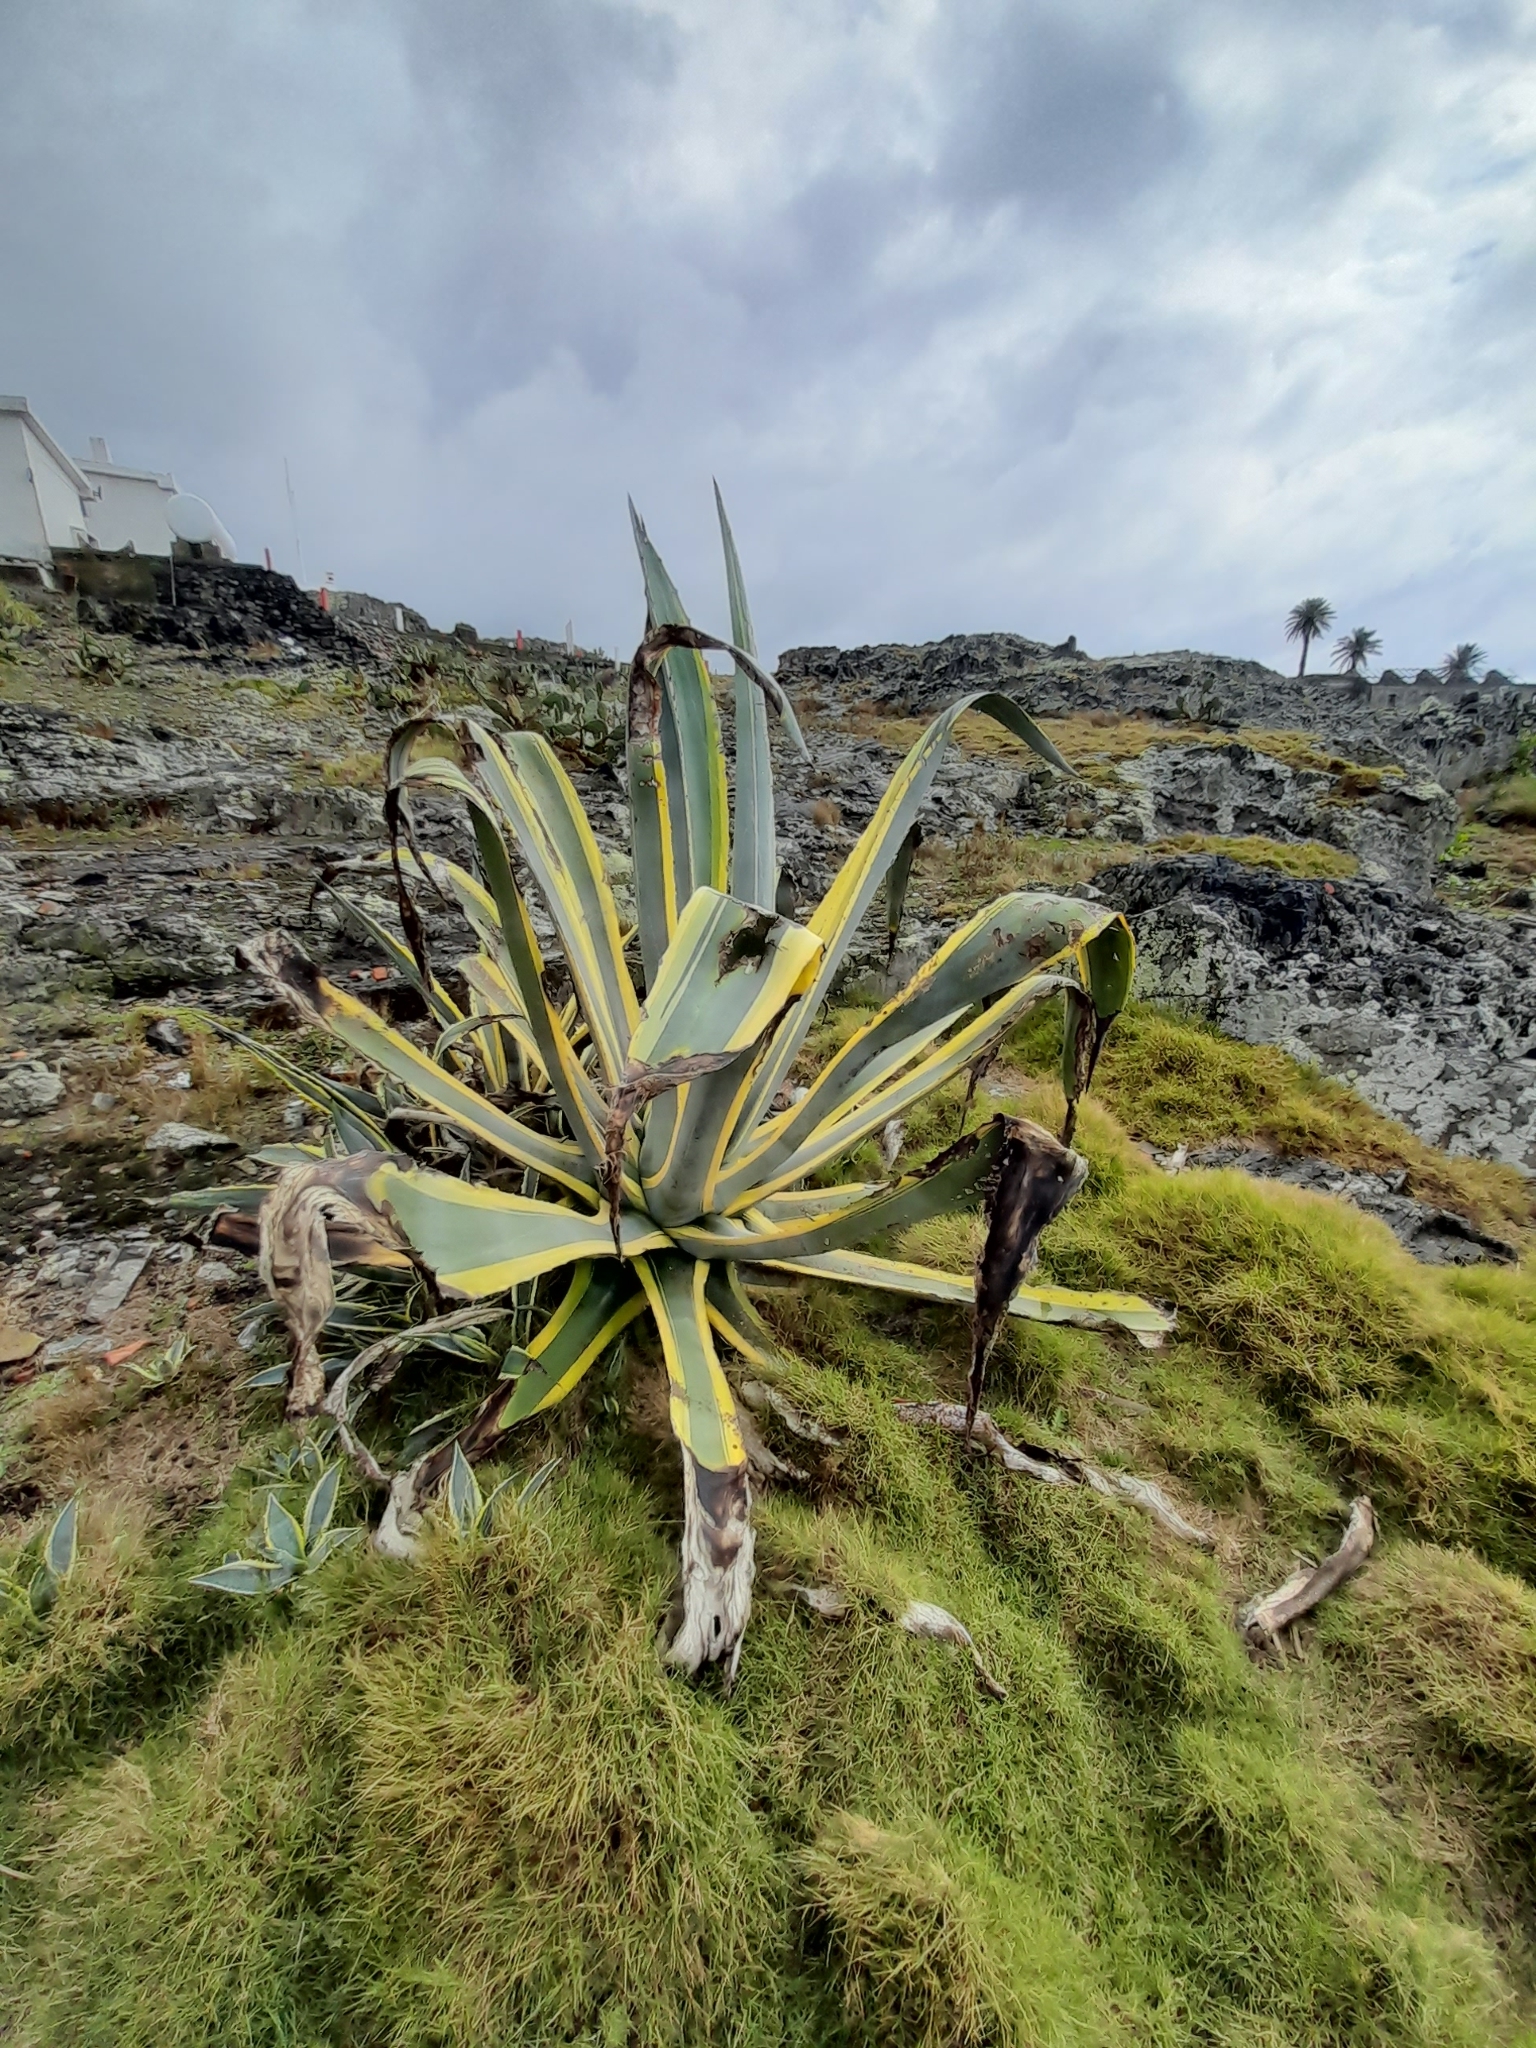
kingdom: Plantae
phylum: Tracheophyta
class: Liliopsida
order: Asparagales
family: Asparagaceae
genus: Agave
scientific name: Agave americana
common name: Centuryplant
